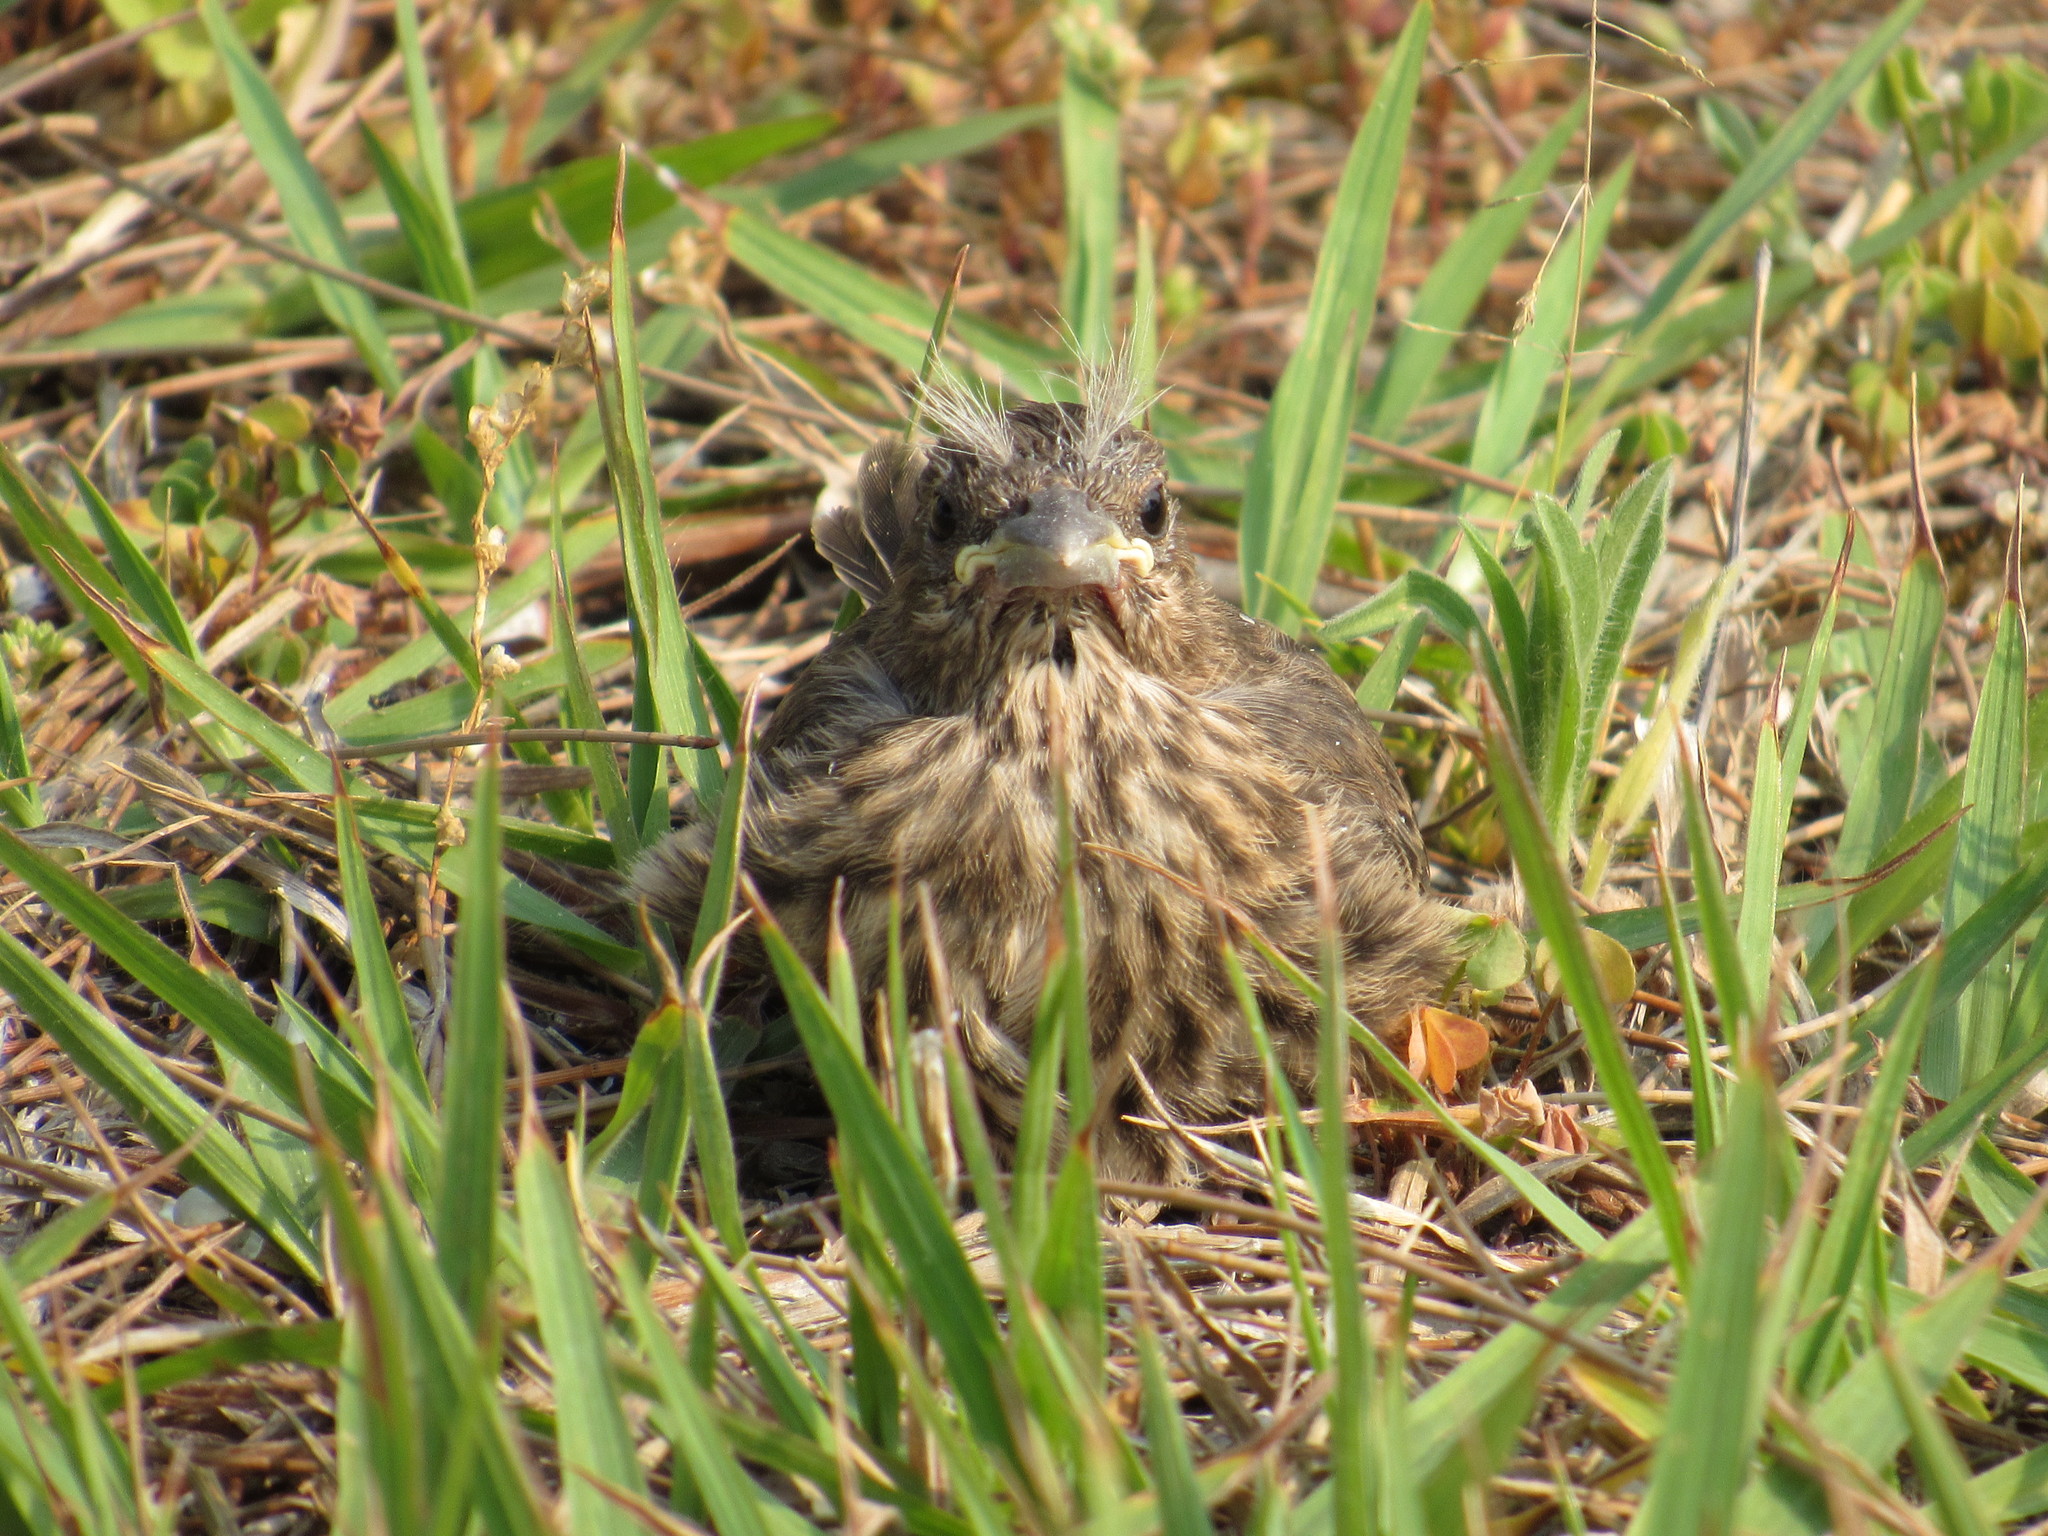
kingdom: Animalia
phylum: Chordata
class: Aves
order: Passeriformes
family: Fringillidae
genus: Haemorhous
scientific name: Haemorhous mexicanus
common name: House finch
